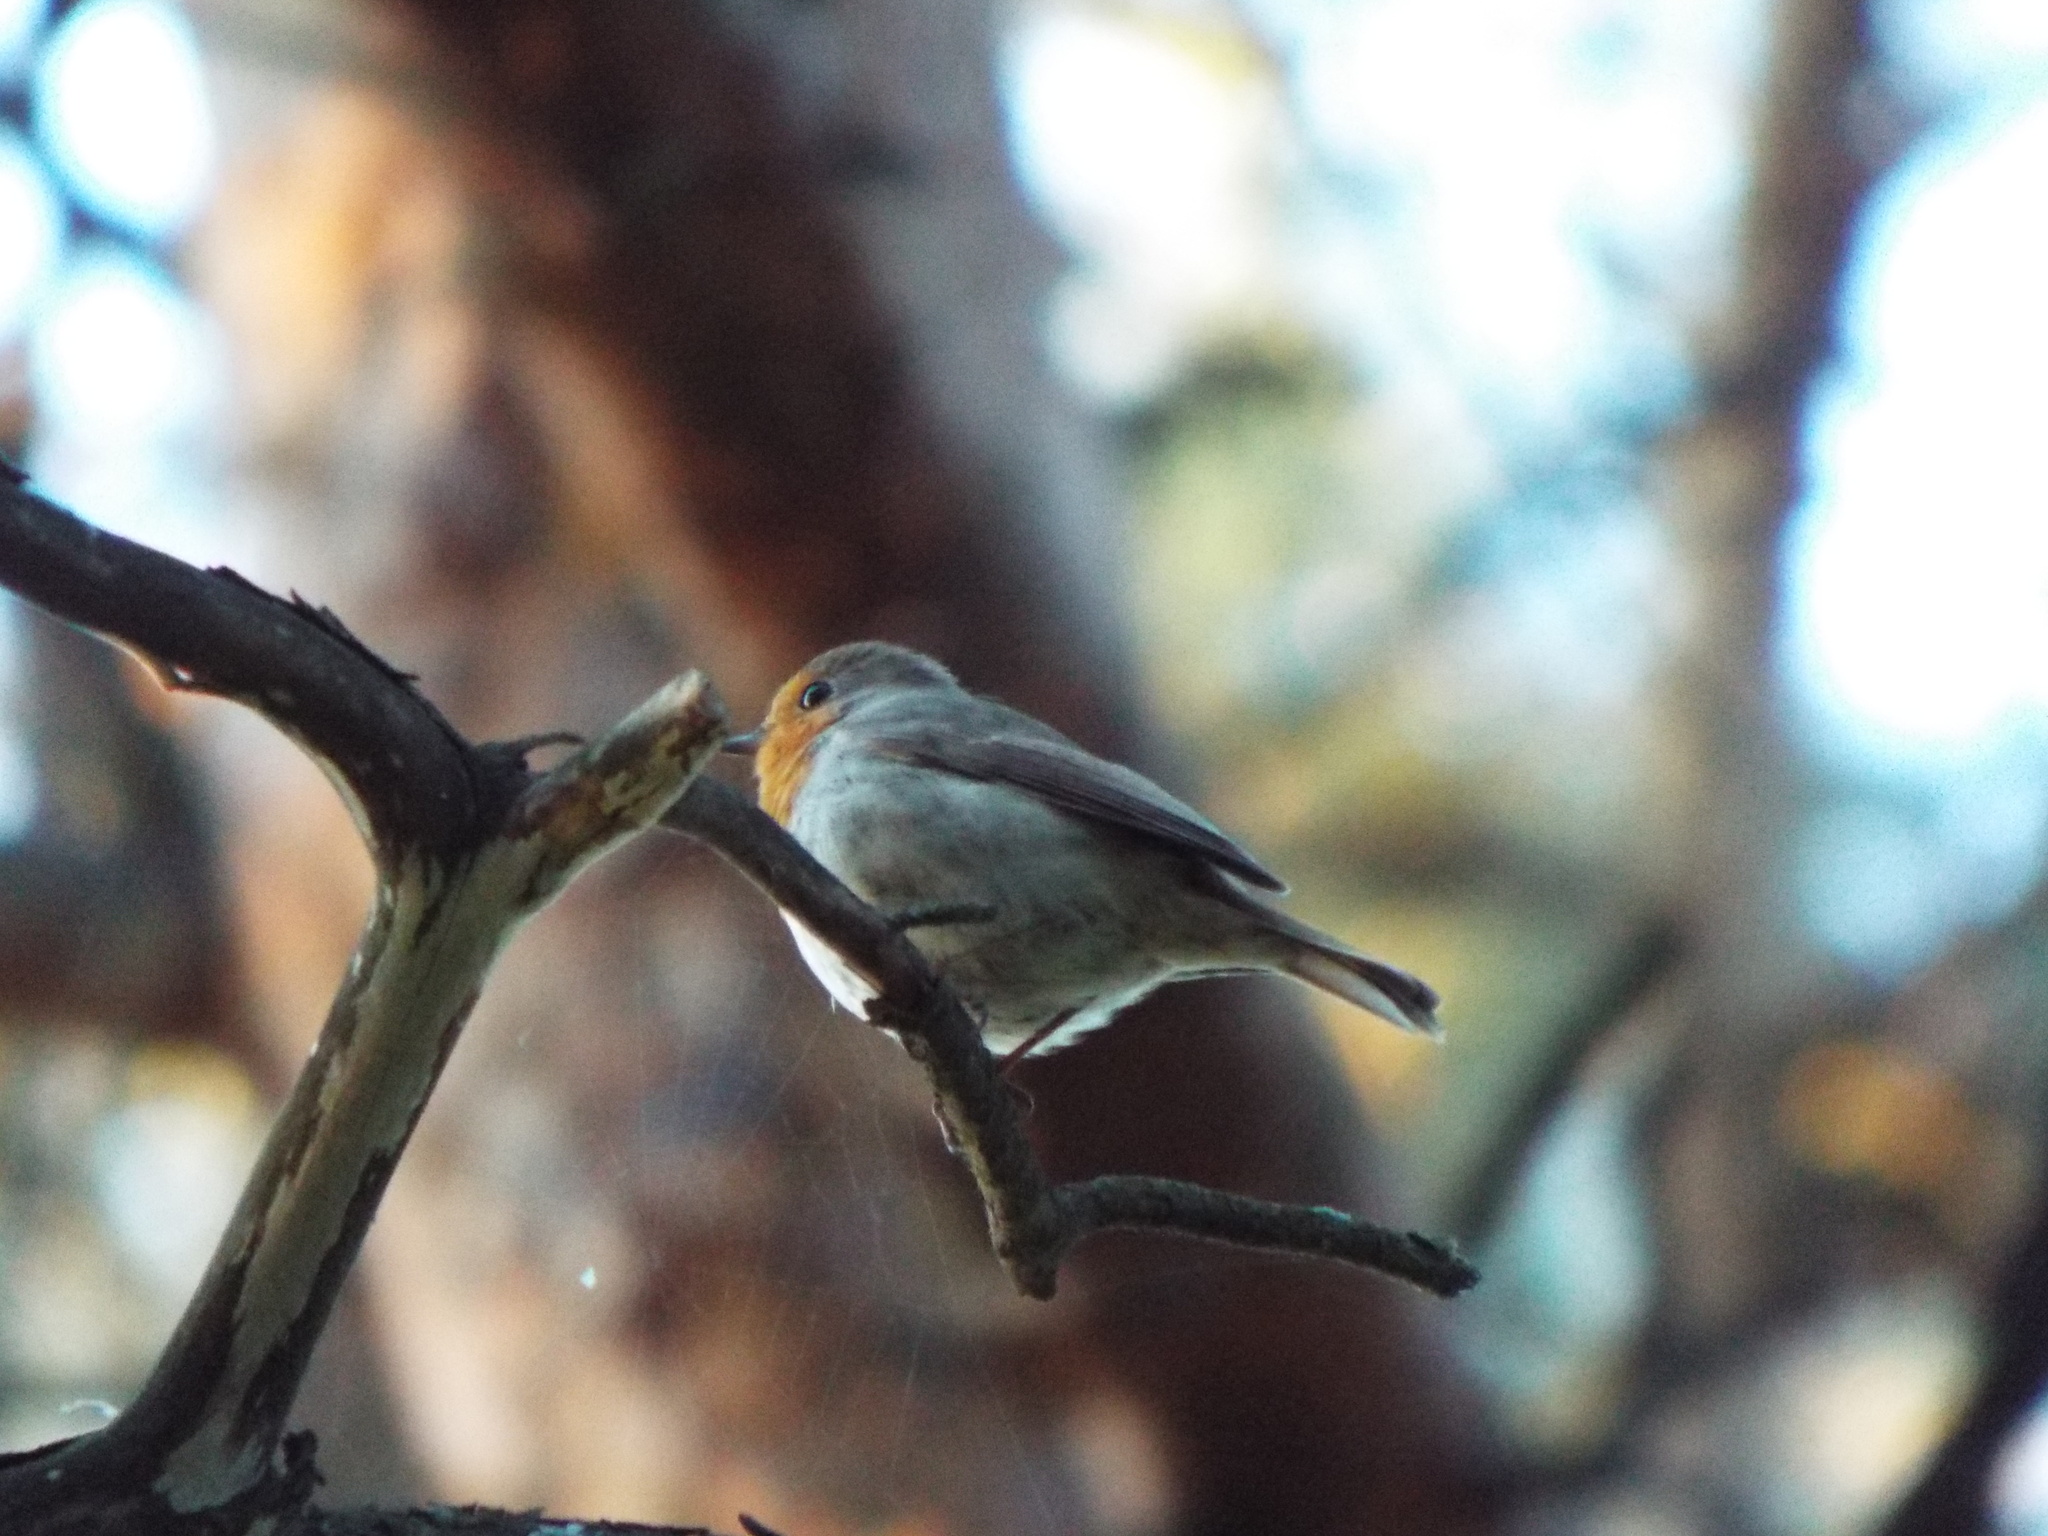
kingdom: Animalia
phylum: Chordata
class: Aves
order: Passeriformes
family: Muscicapidae
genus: Erithacus
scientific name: Erithacus rubecula
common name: European robin
